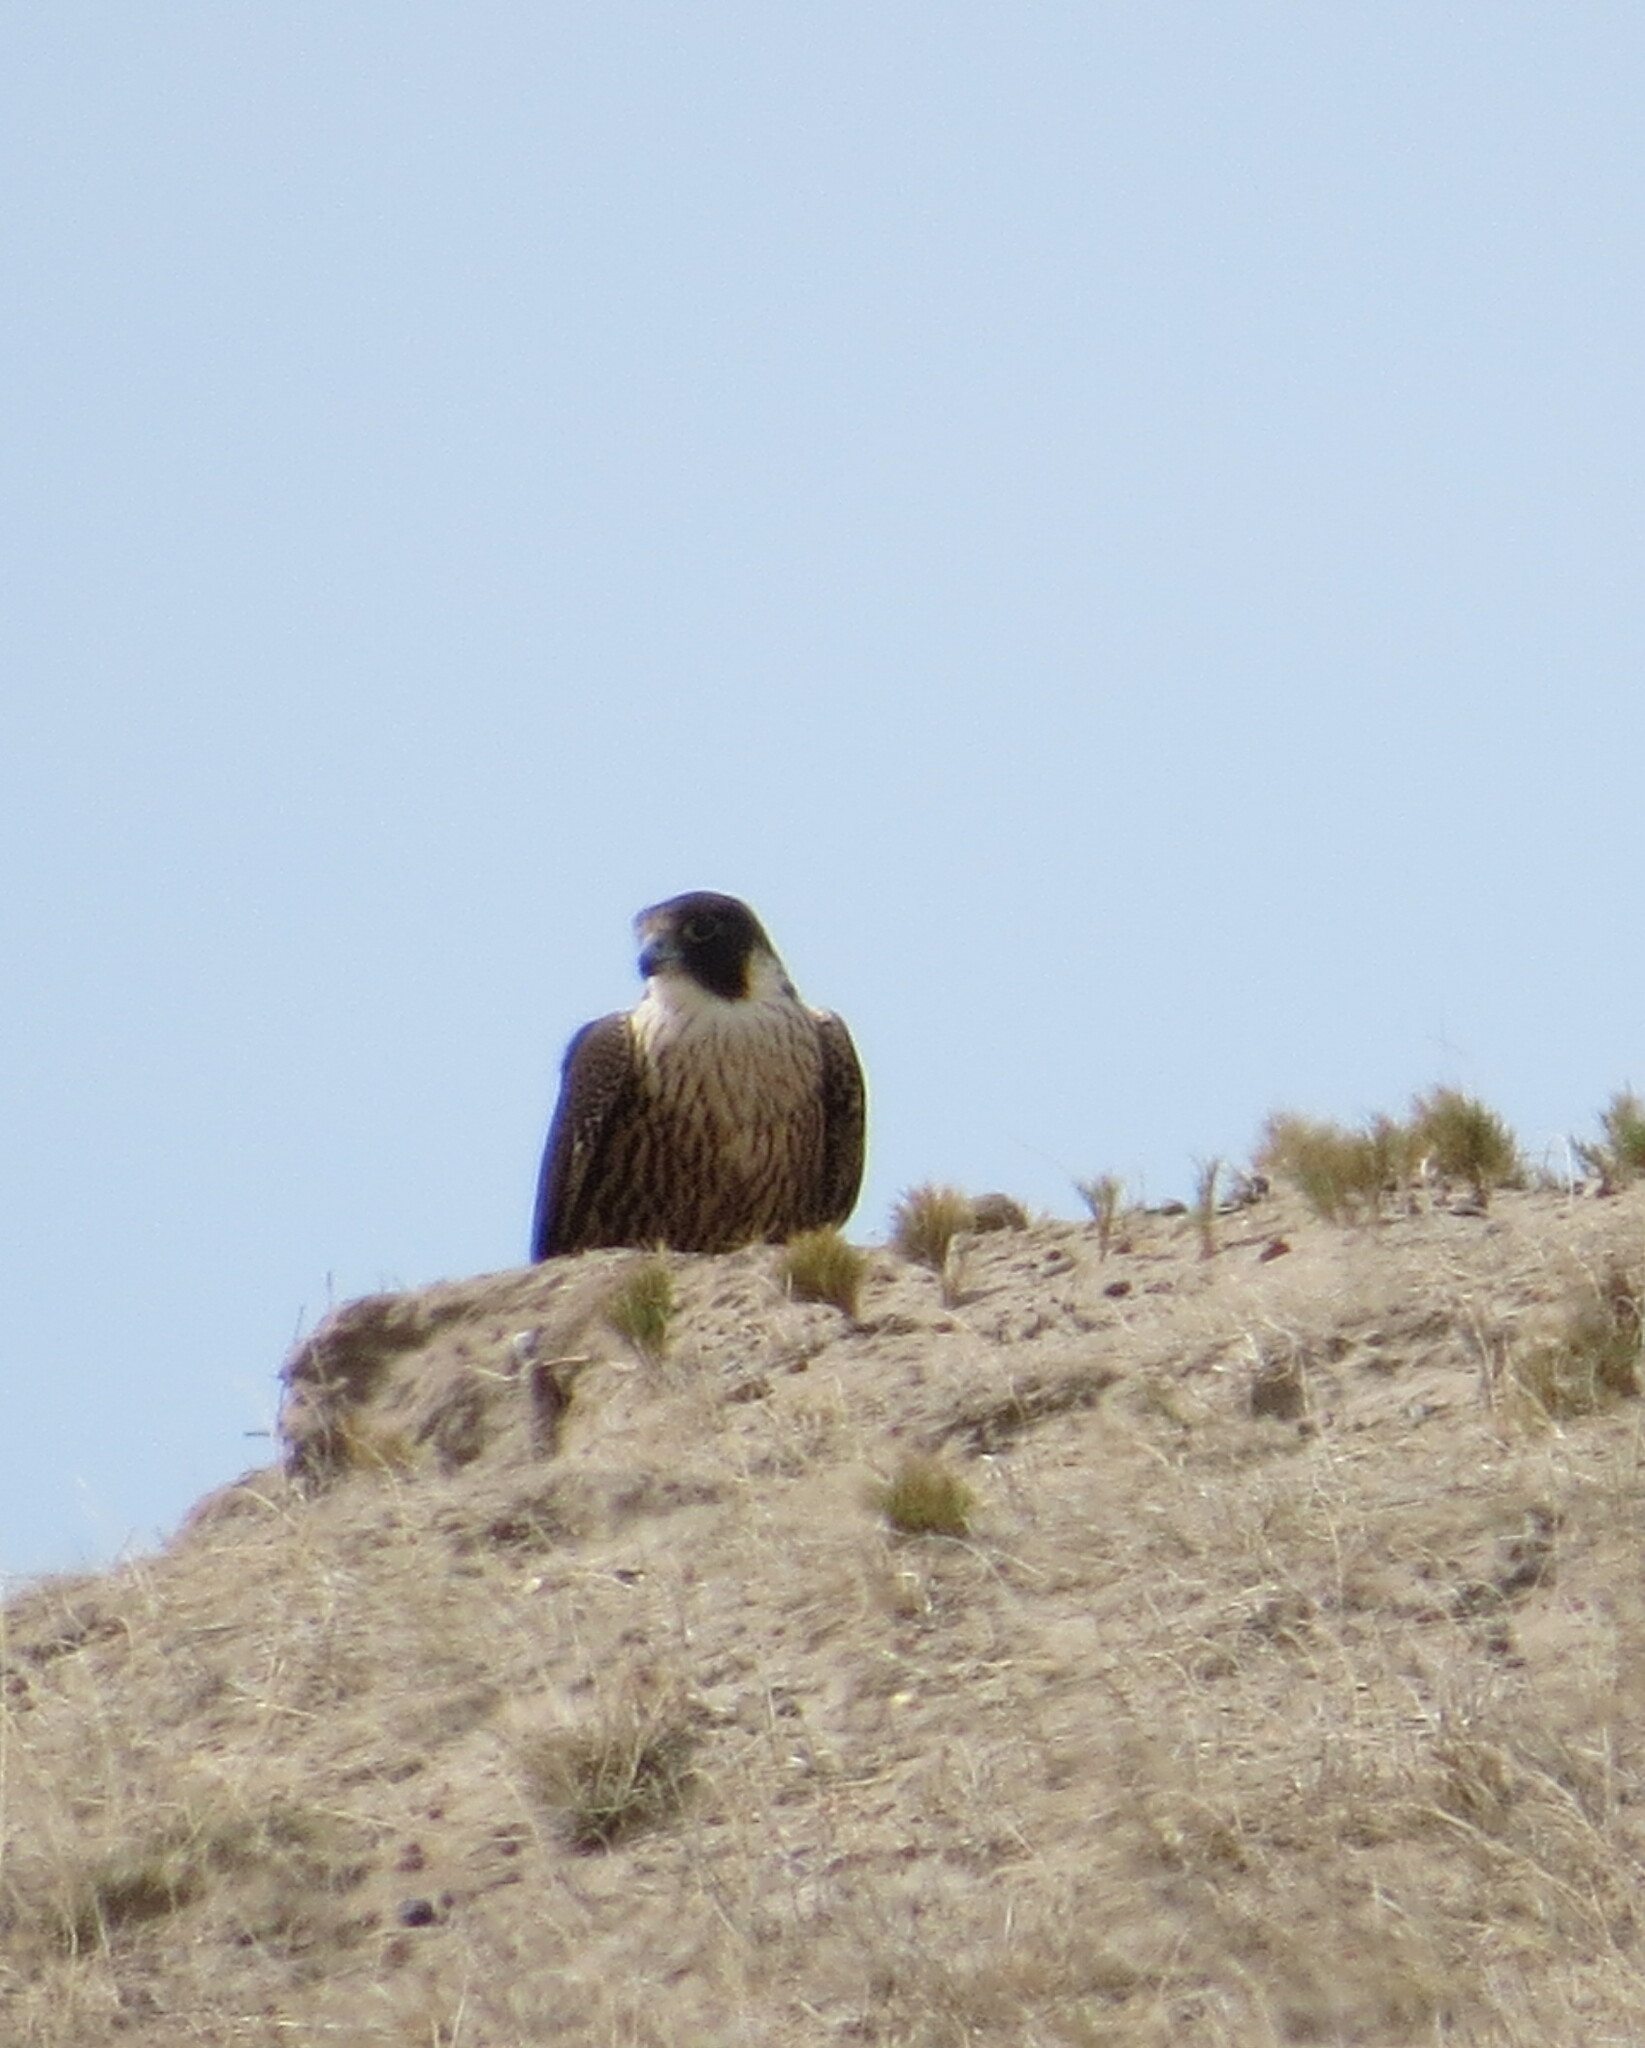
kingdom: Animalia
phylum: Chordata
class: Aves
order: Falconiformes
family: Falconidae
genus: Falco
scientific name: Falco peregrinus
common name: Peregrine falcon
